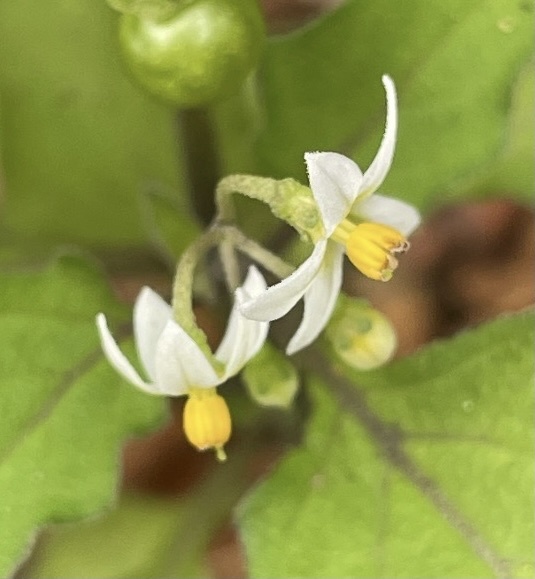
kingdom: Plantae
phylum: Tracheophyta
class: Magnoliopsida
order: Solanales
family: Solanaceae
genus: Solanum
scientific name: Solanum americanum
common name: American black nightshade
